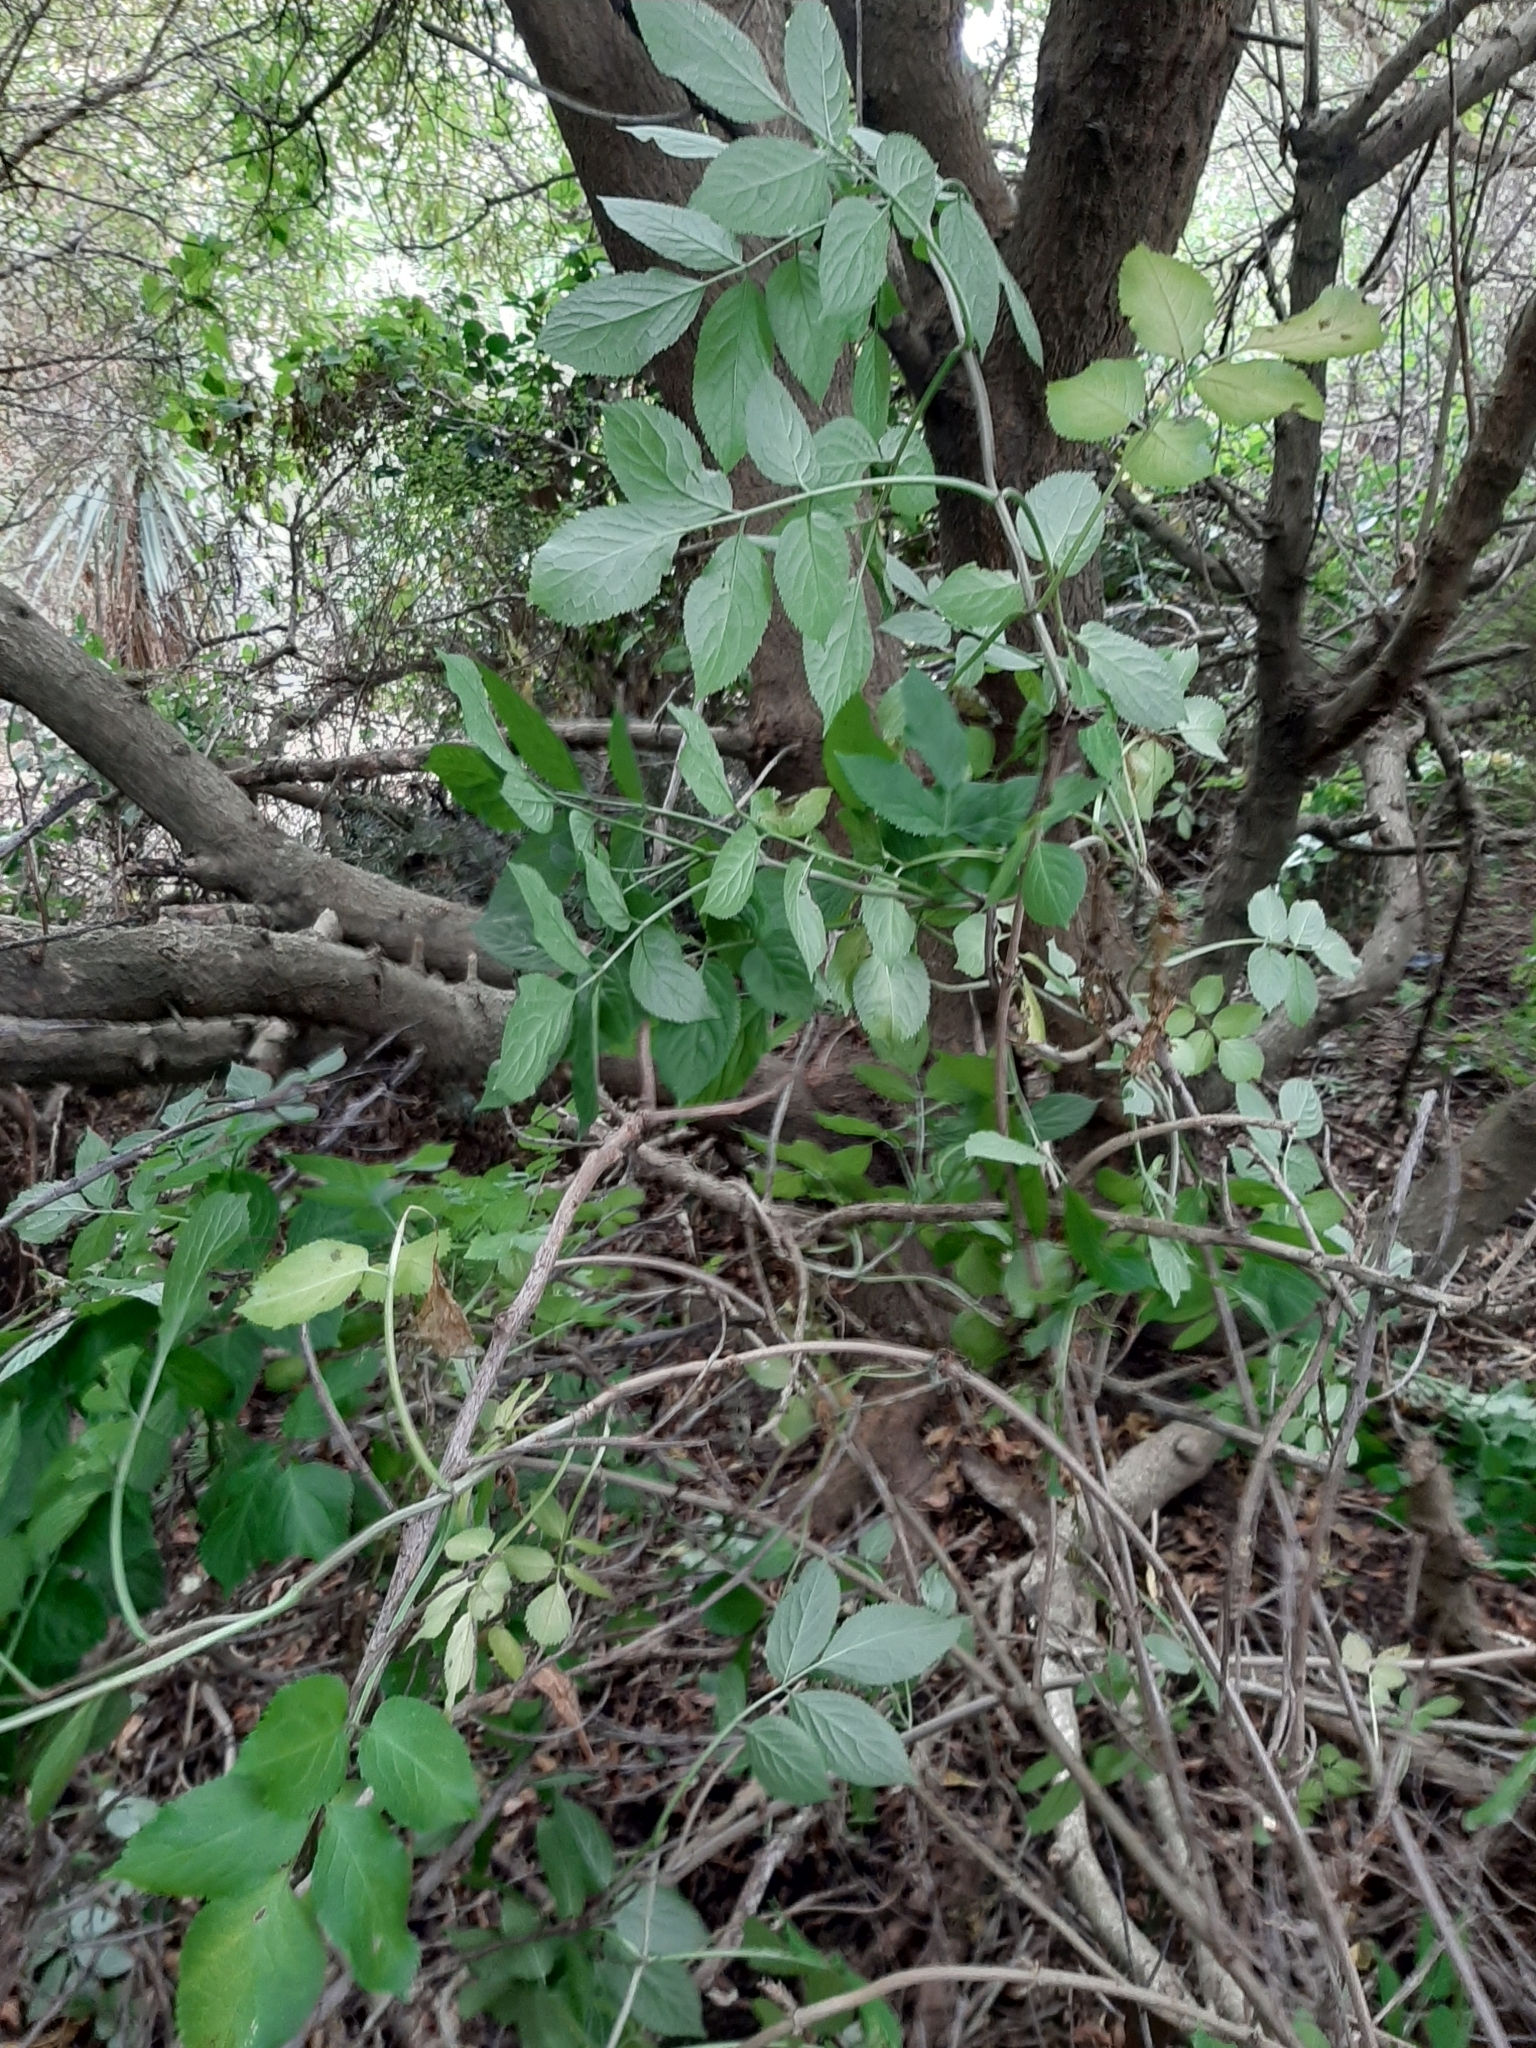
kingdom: Plantae
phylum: Tracheophyta
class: Magnoliopsida
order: Dipsacales
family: Viburnaceae
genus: Sambucus
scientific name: Sambucus nigra
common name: Elder
